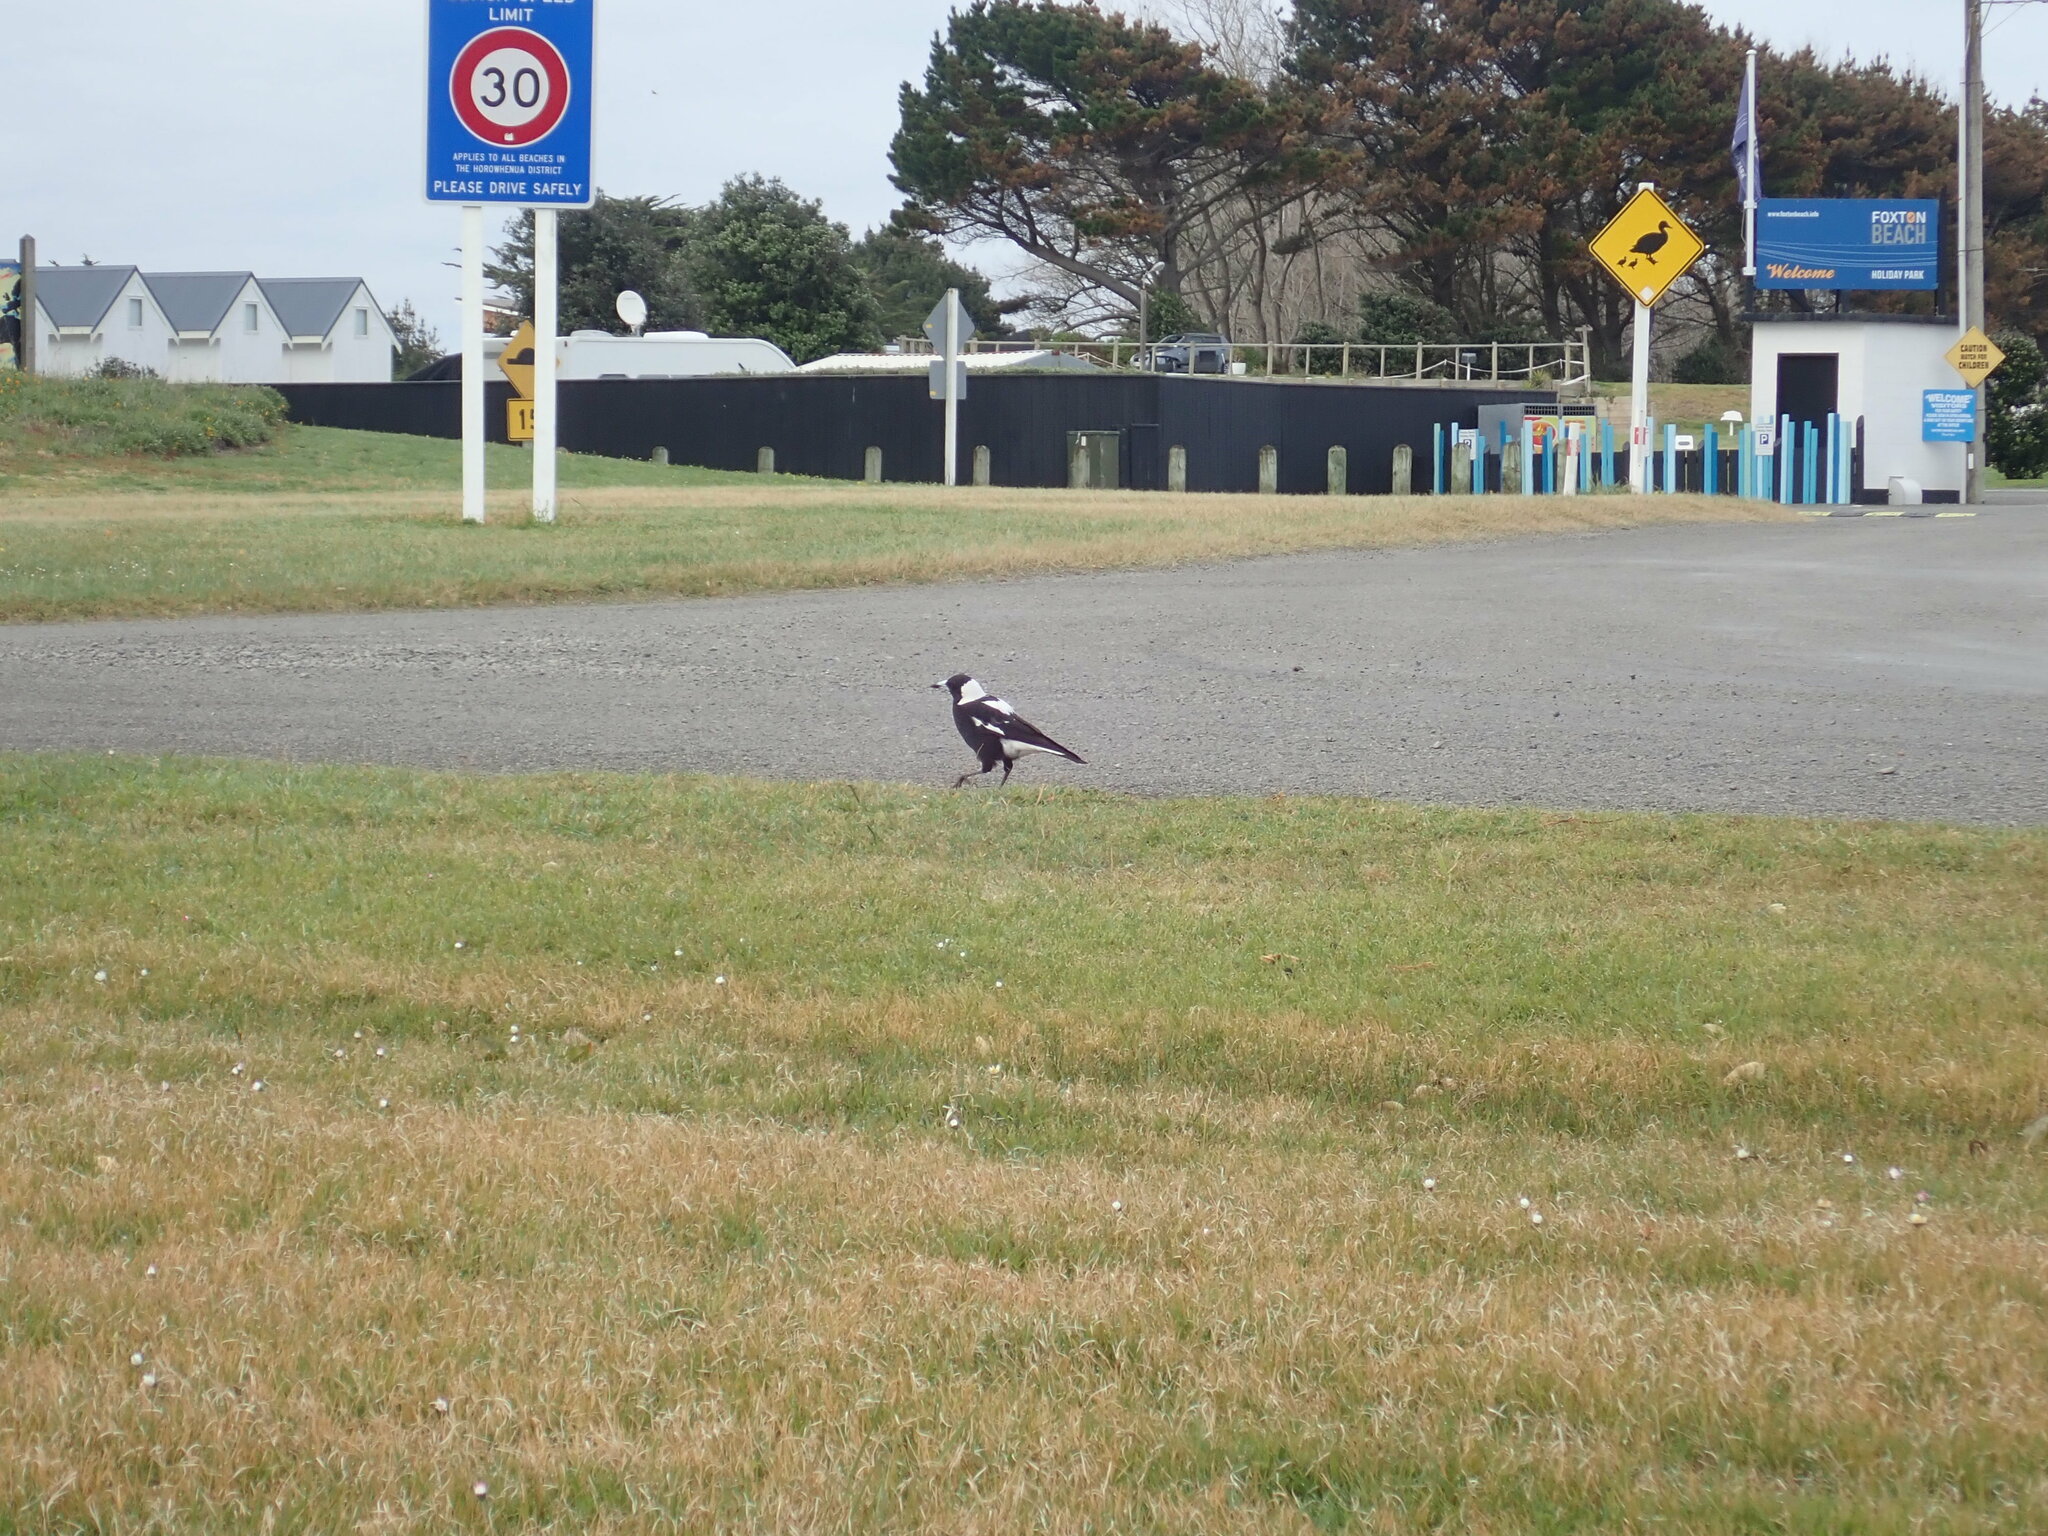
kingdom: Animalia
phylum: Chordata
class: Aves
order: Passeriformes
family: Cracticidae
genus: Gymnorhina
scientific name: Gymnorhina tibicen
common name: Australian magpie
